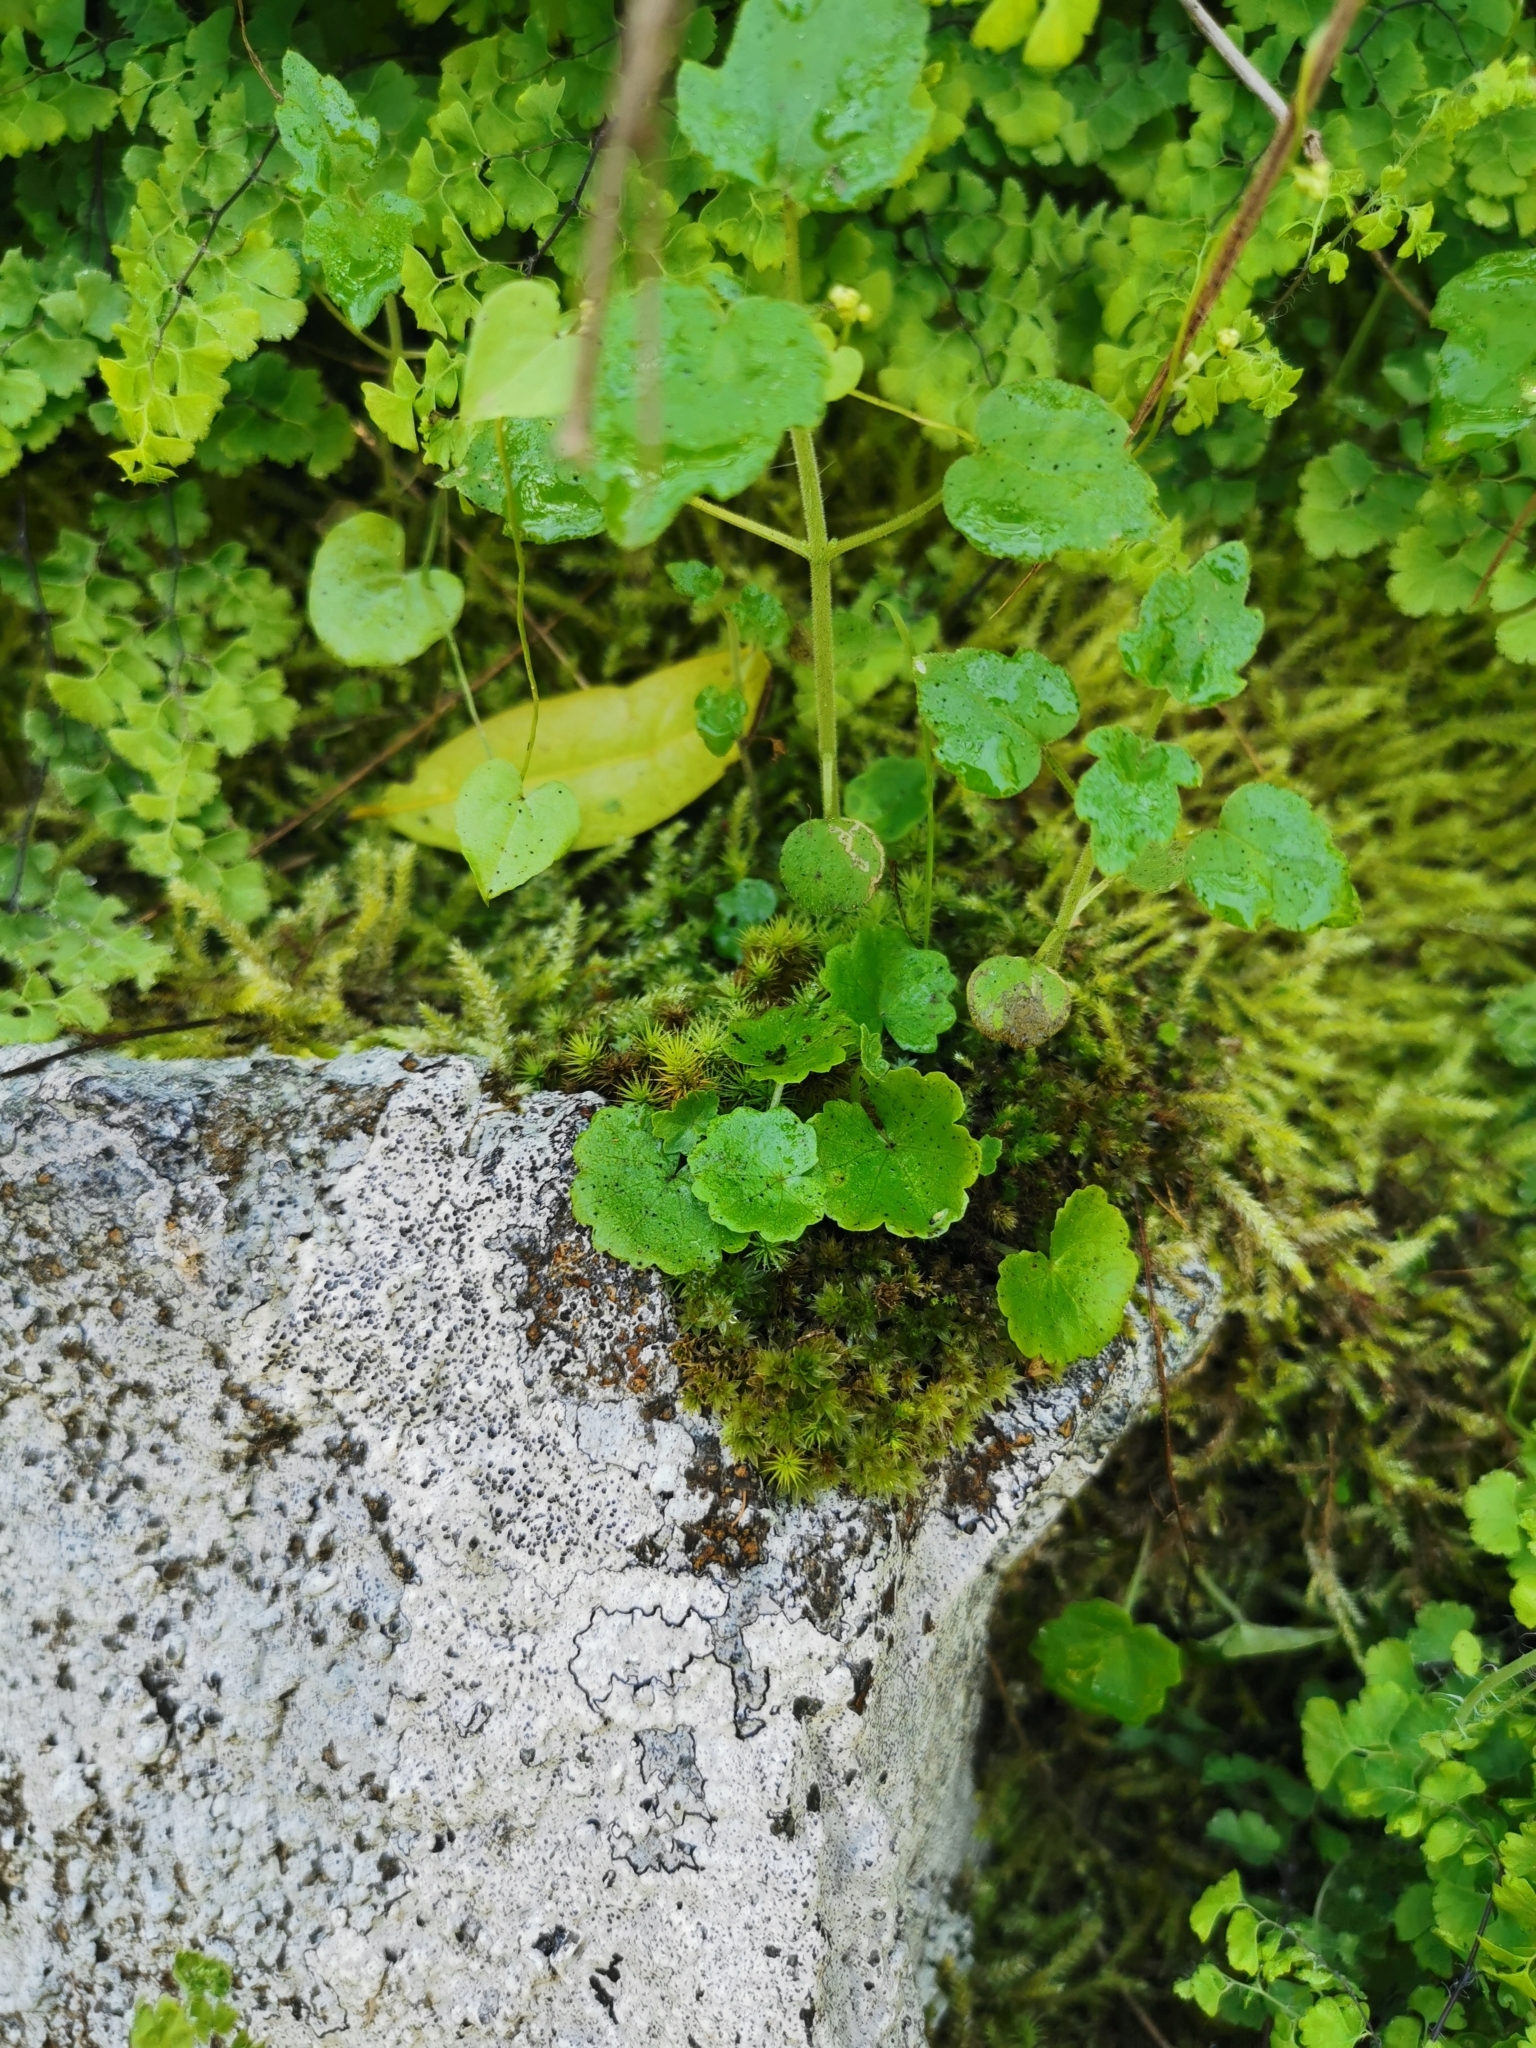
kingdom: Plantae
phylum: Tracheophyta
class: Magnoliopsida
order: Geraniales
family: Francoaceae
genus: Tetilla
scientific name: Tetilla hydrocotylifolia
